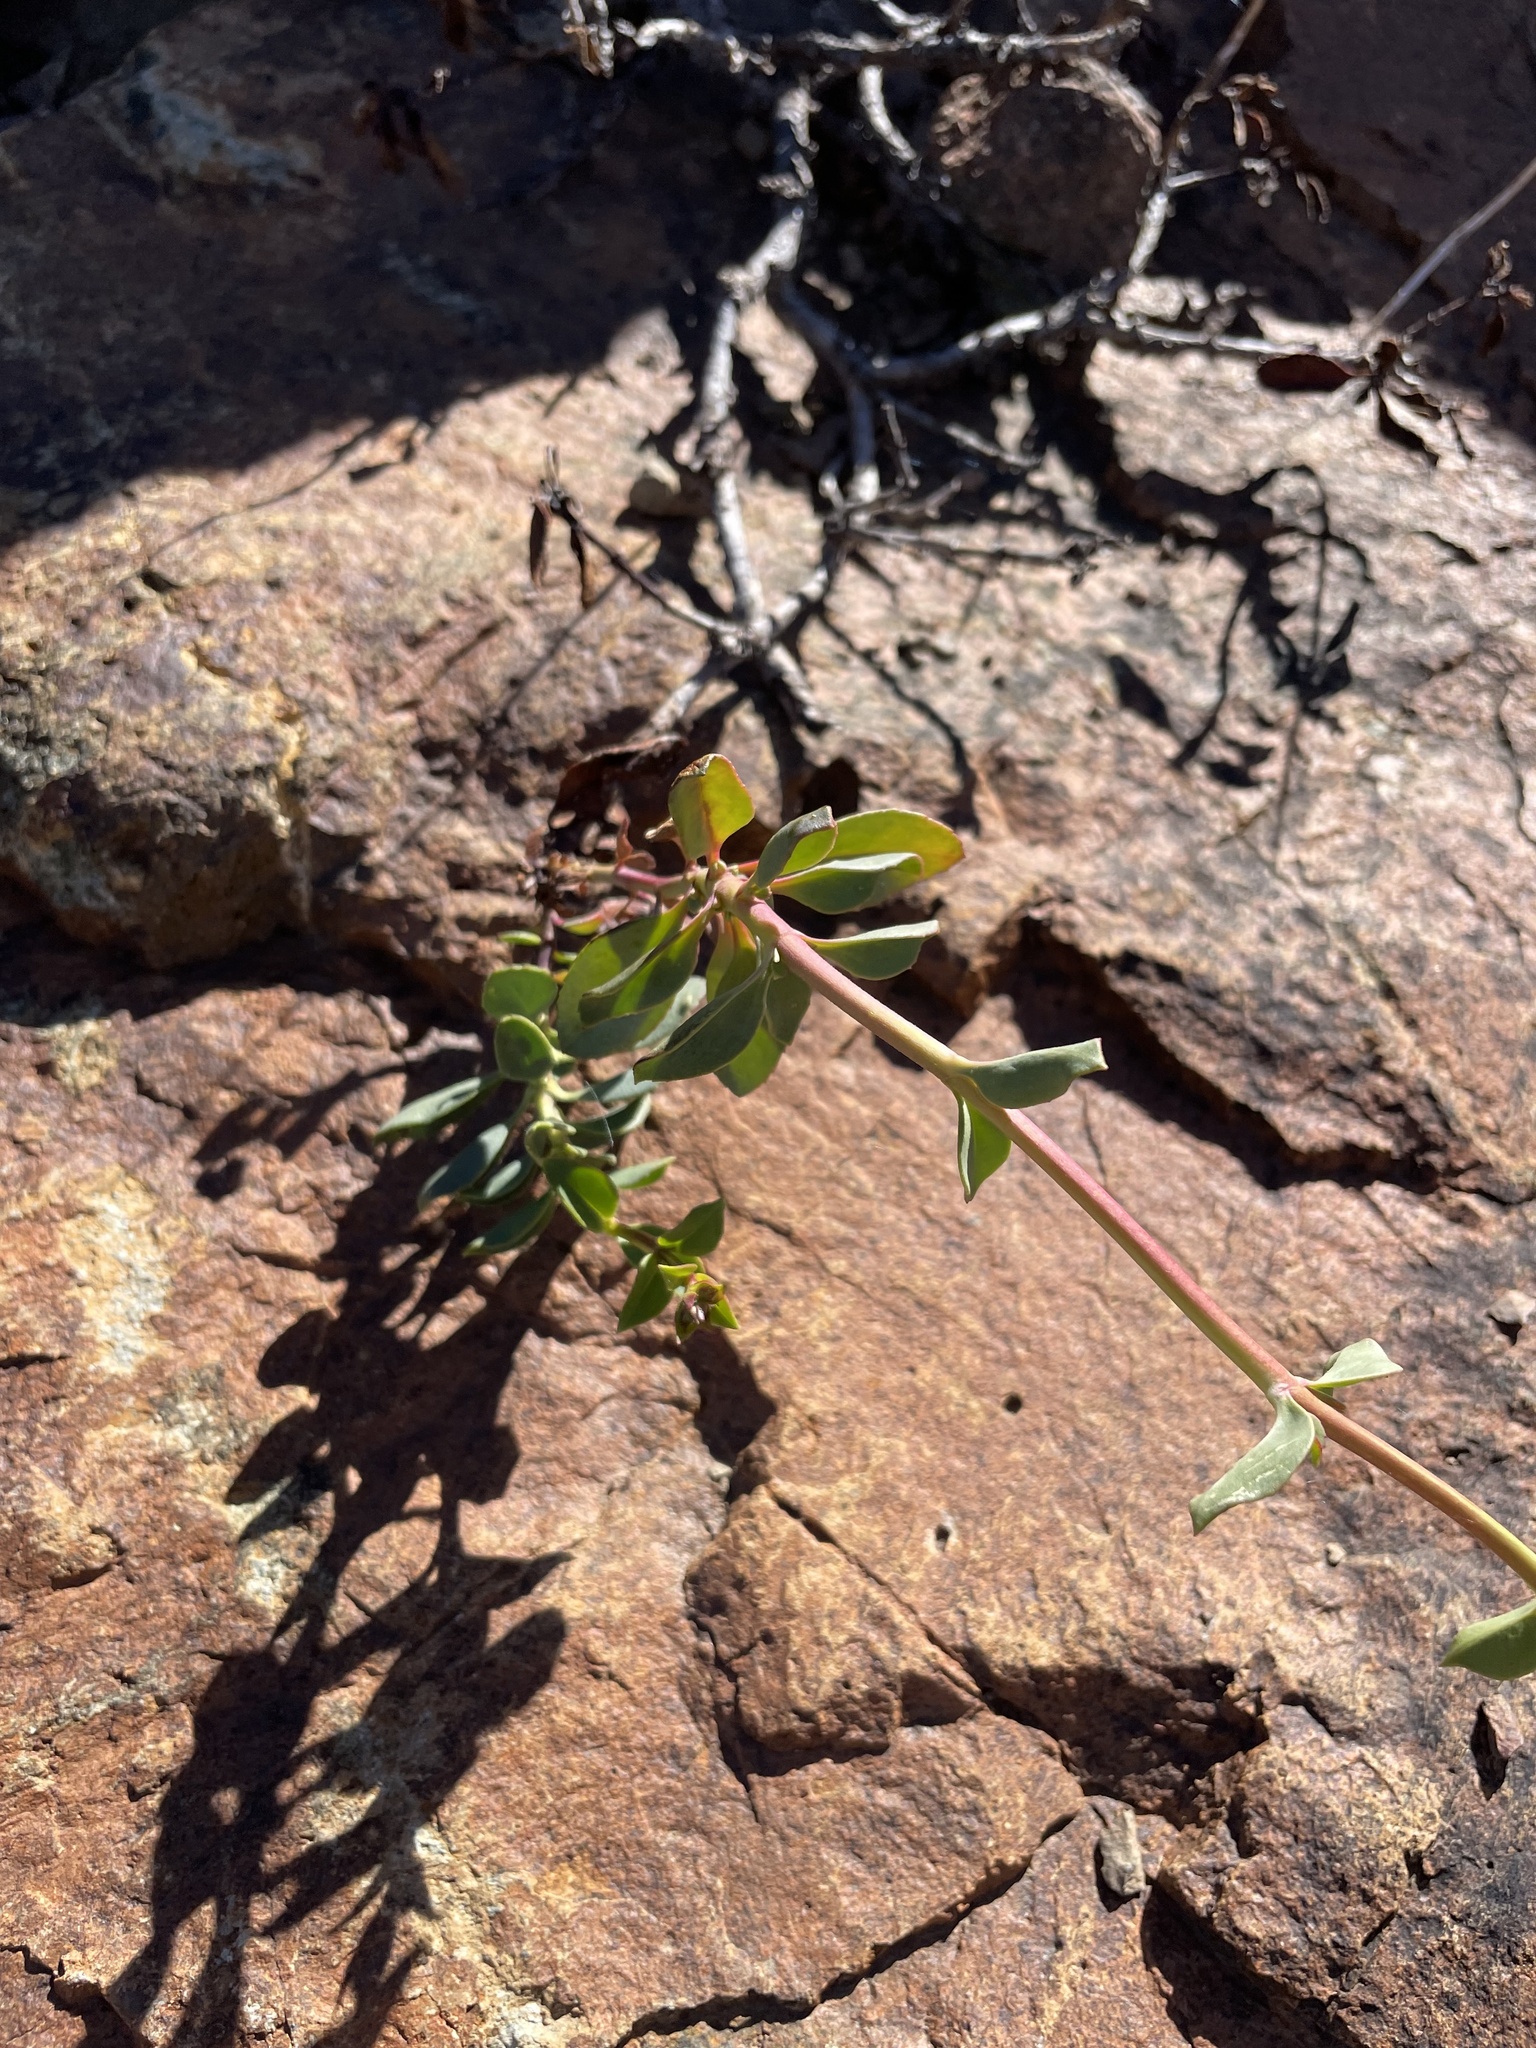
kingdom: Plantae
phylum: Tracheophyta
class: Magnoliopsida
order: Lamiales
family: Plantaginaceae
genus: Penstemon
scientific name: Penstemon newberryi
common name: Mountain-pride
